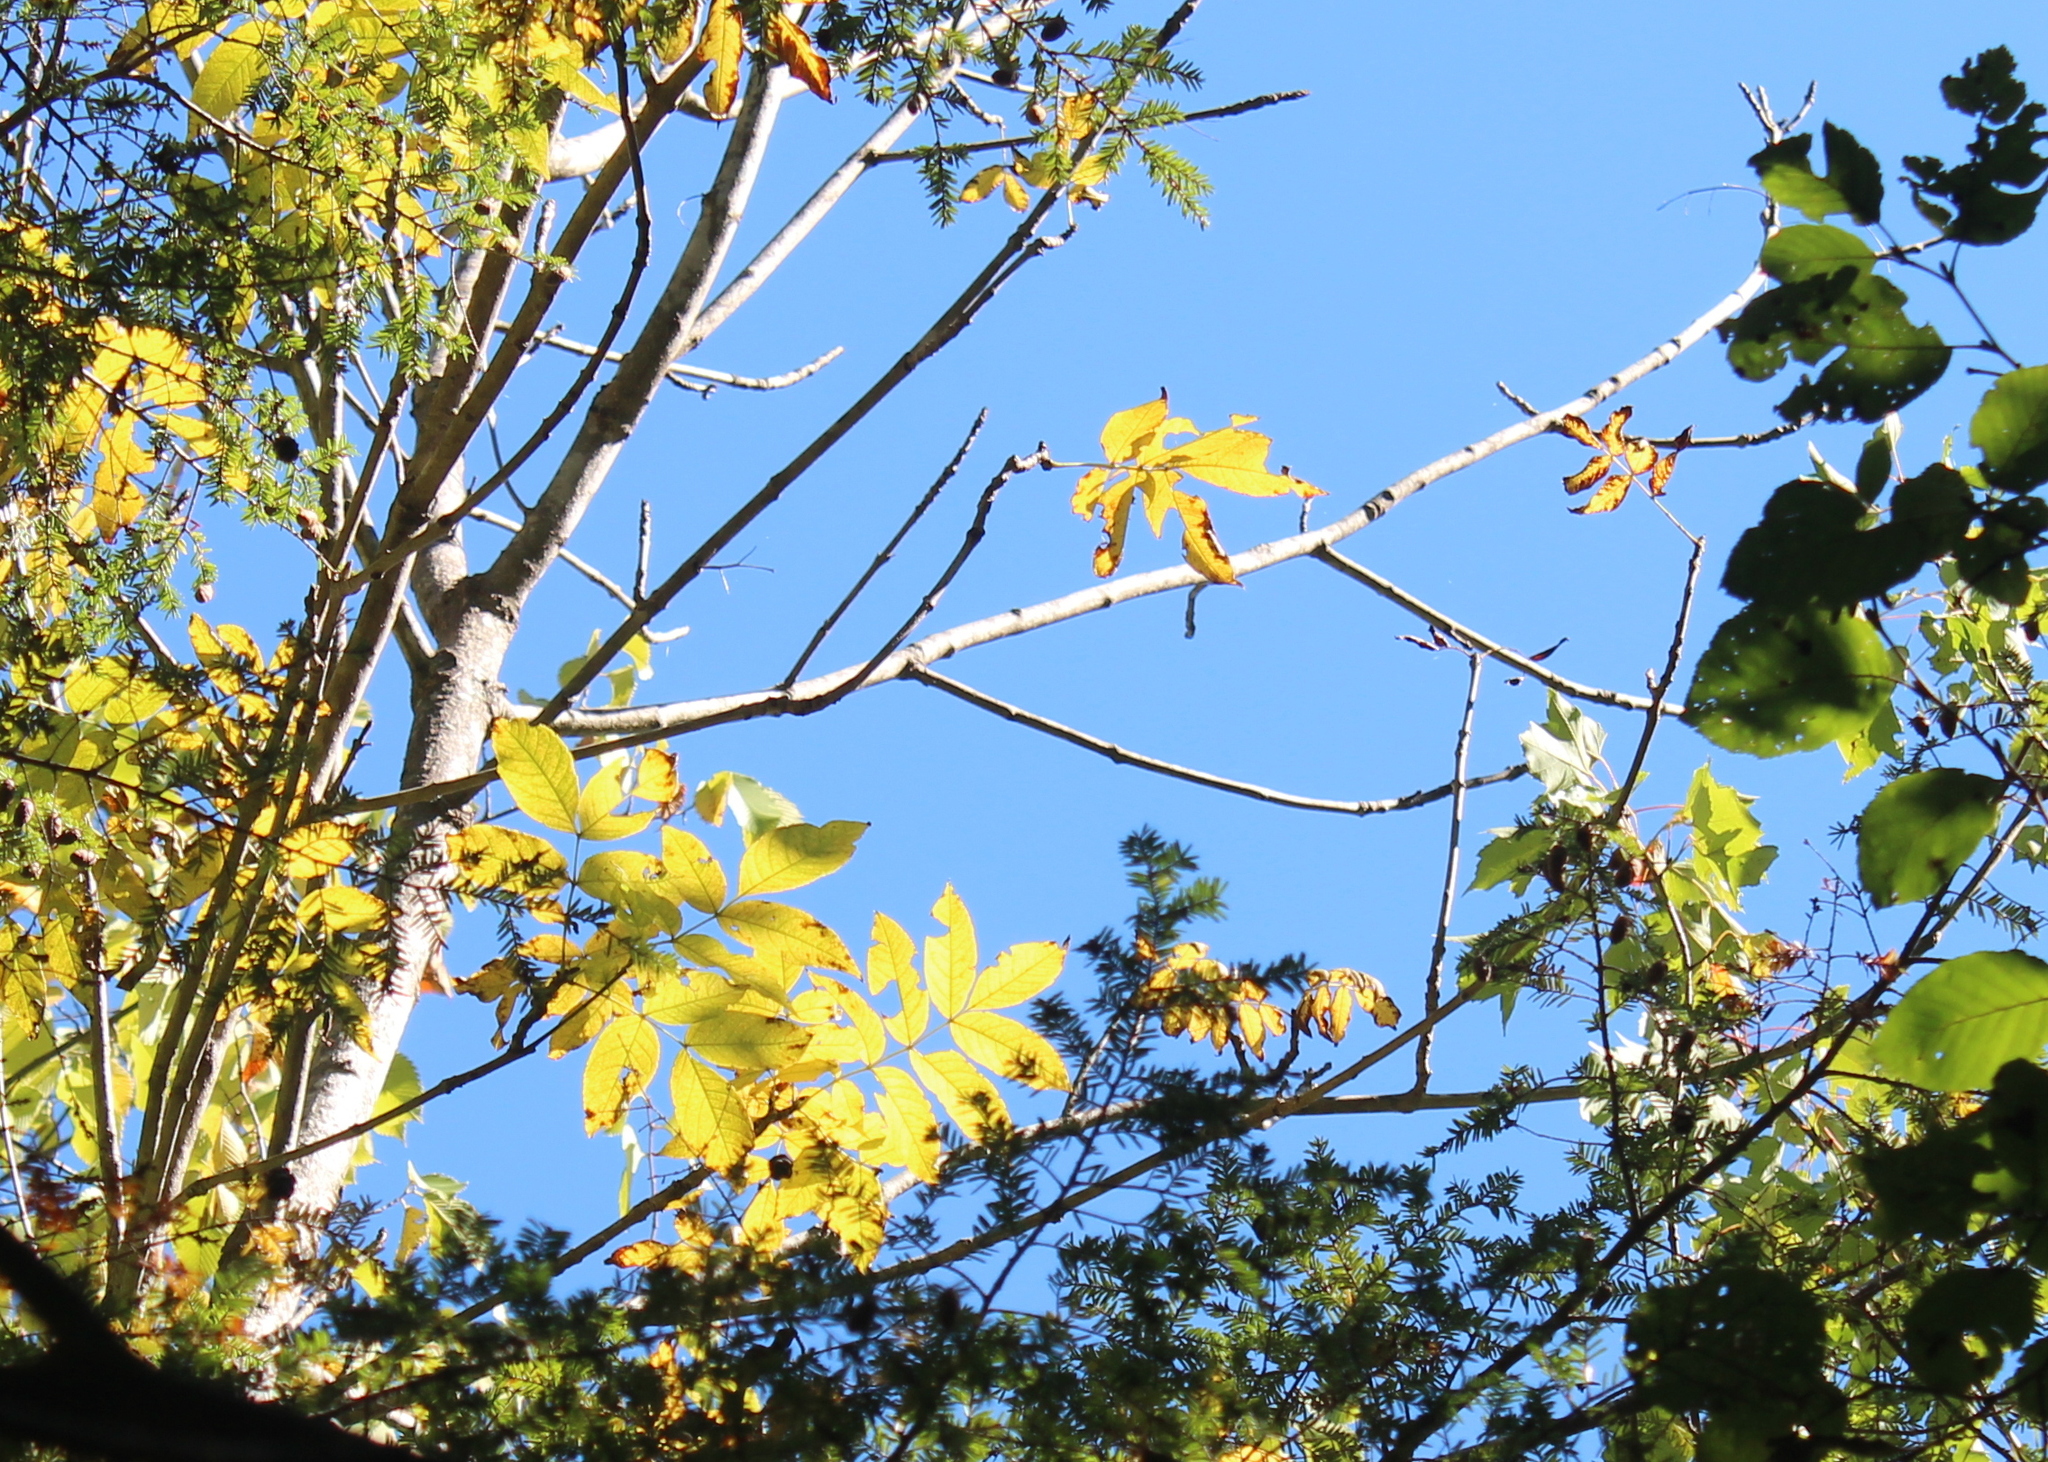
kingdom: Plantae
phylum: Tracheophyta
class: Magnoliopsida
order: Lamiales
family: Oleaceae
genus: Fraxinus
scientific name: Fraxinus nigra
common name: Black ash
